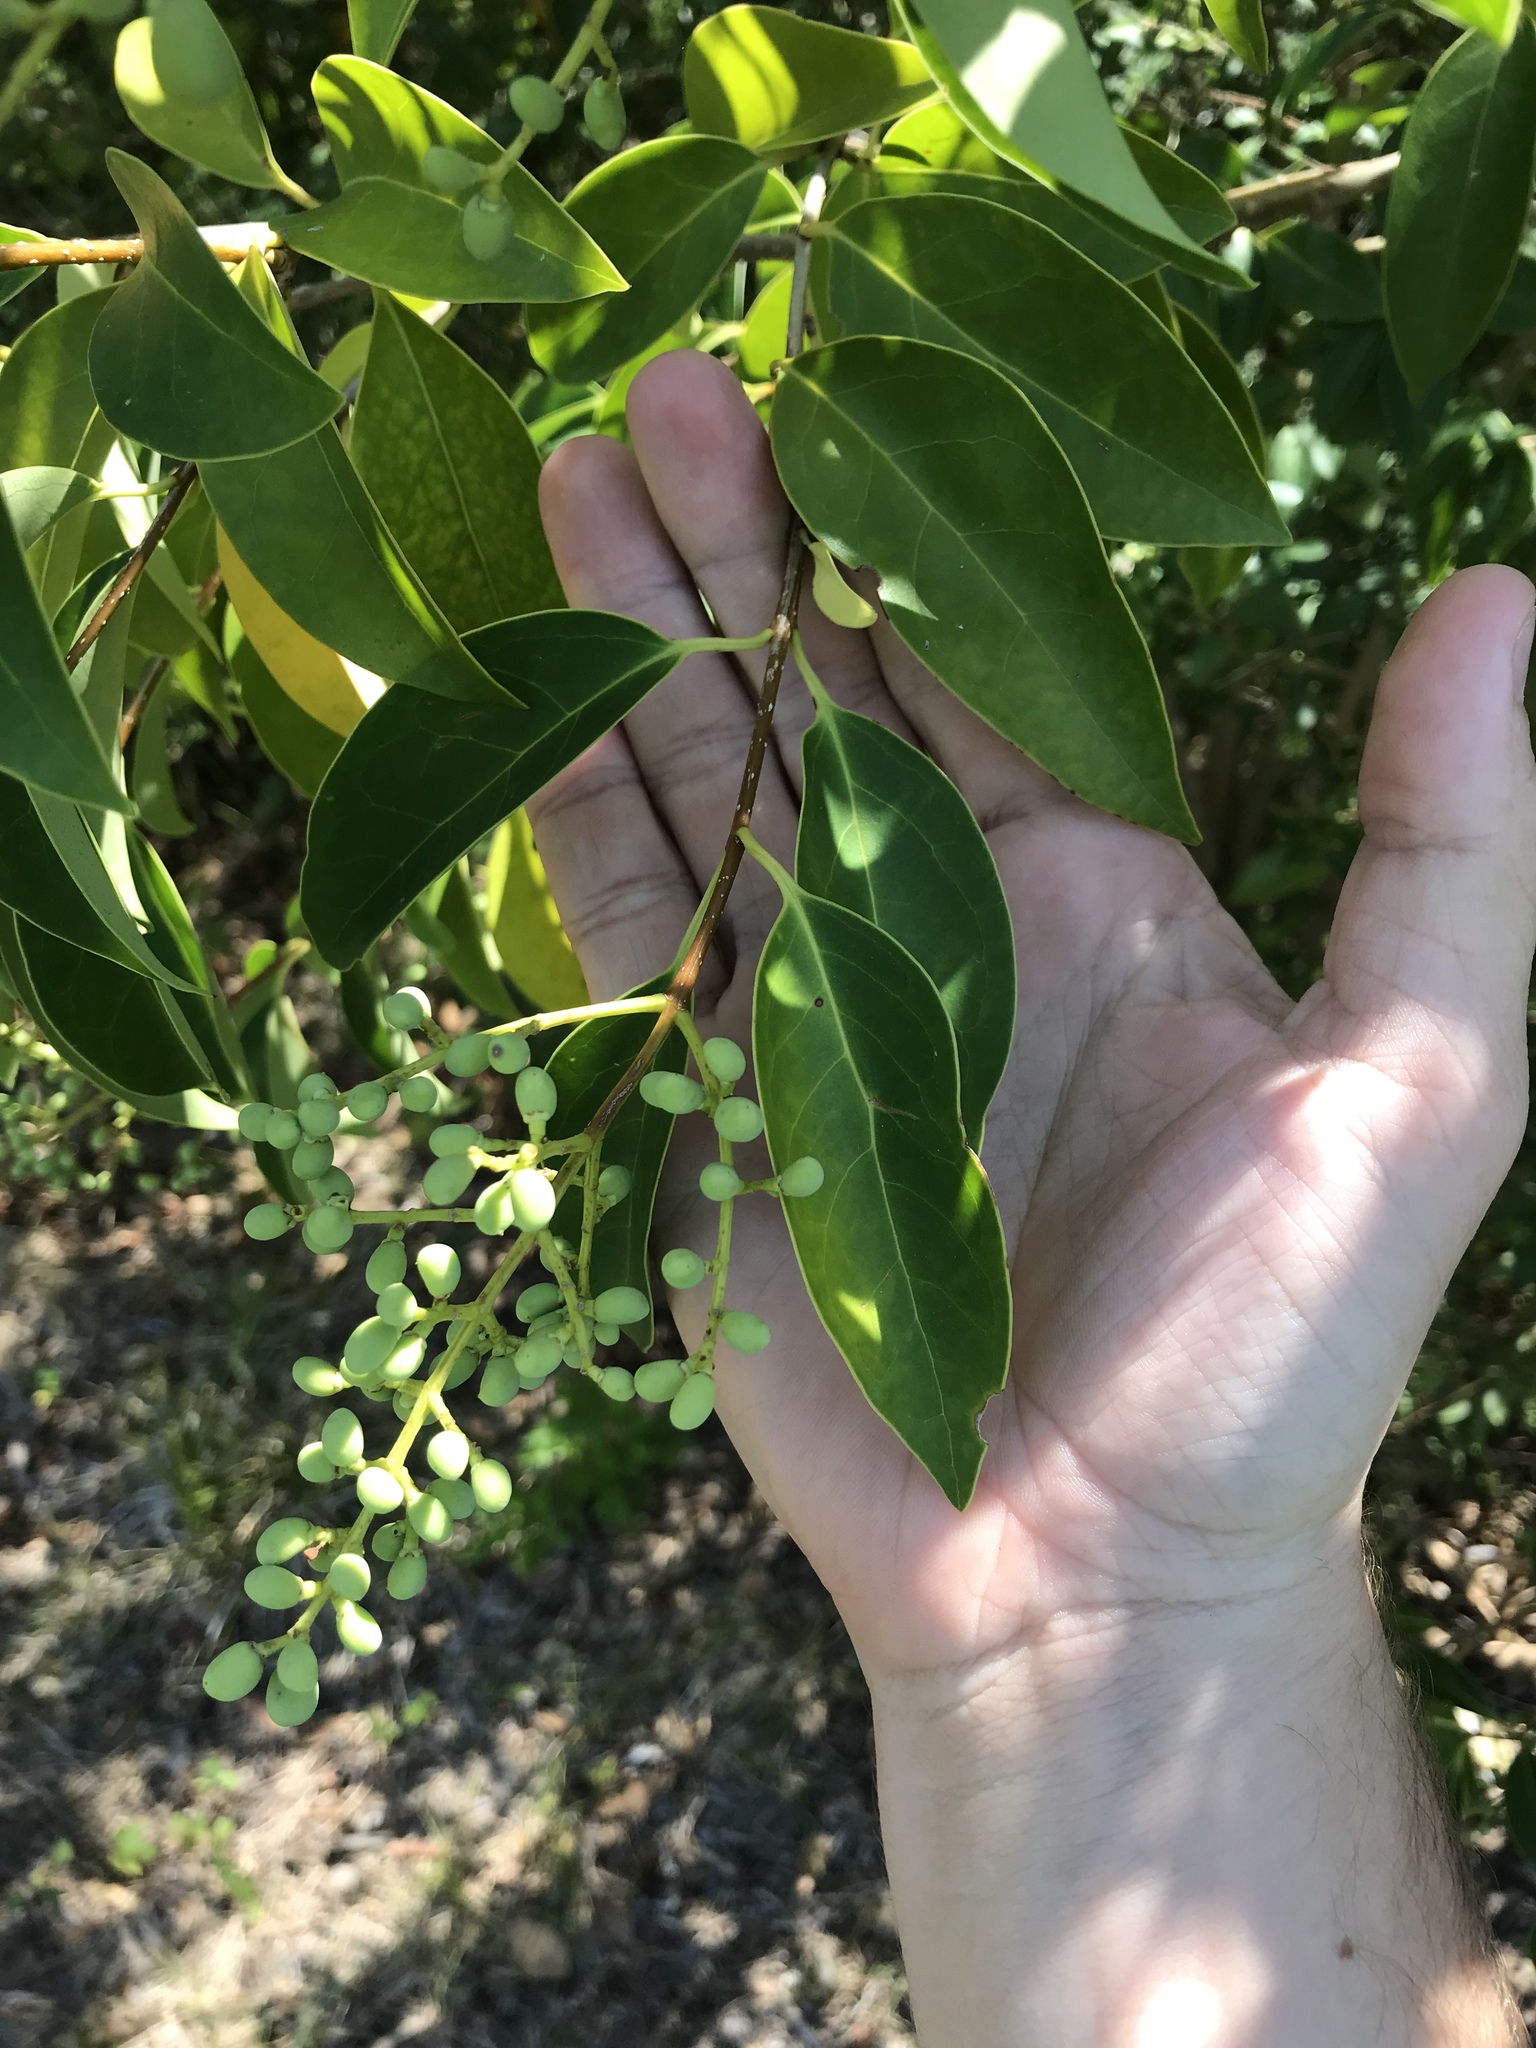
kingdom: Plantae
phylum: Tracheophyta
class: Magnoliopsida
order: Lamiales
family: Oleaceae
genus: Ligustrum
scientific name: Ligustrum lucidum
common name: Glossy privet
